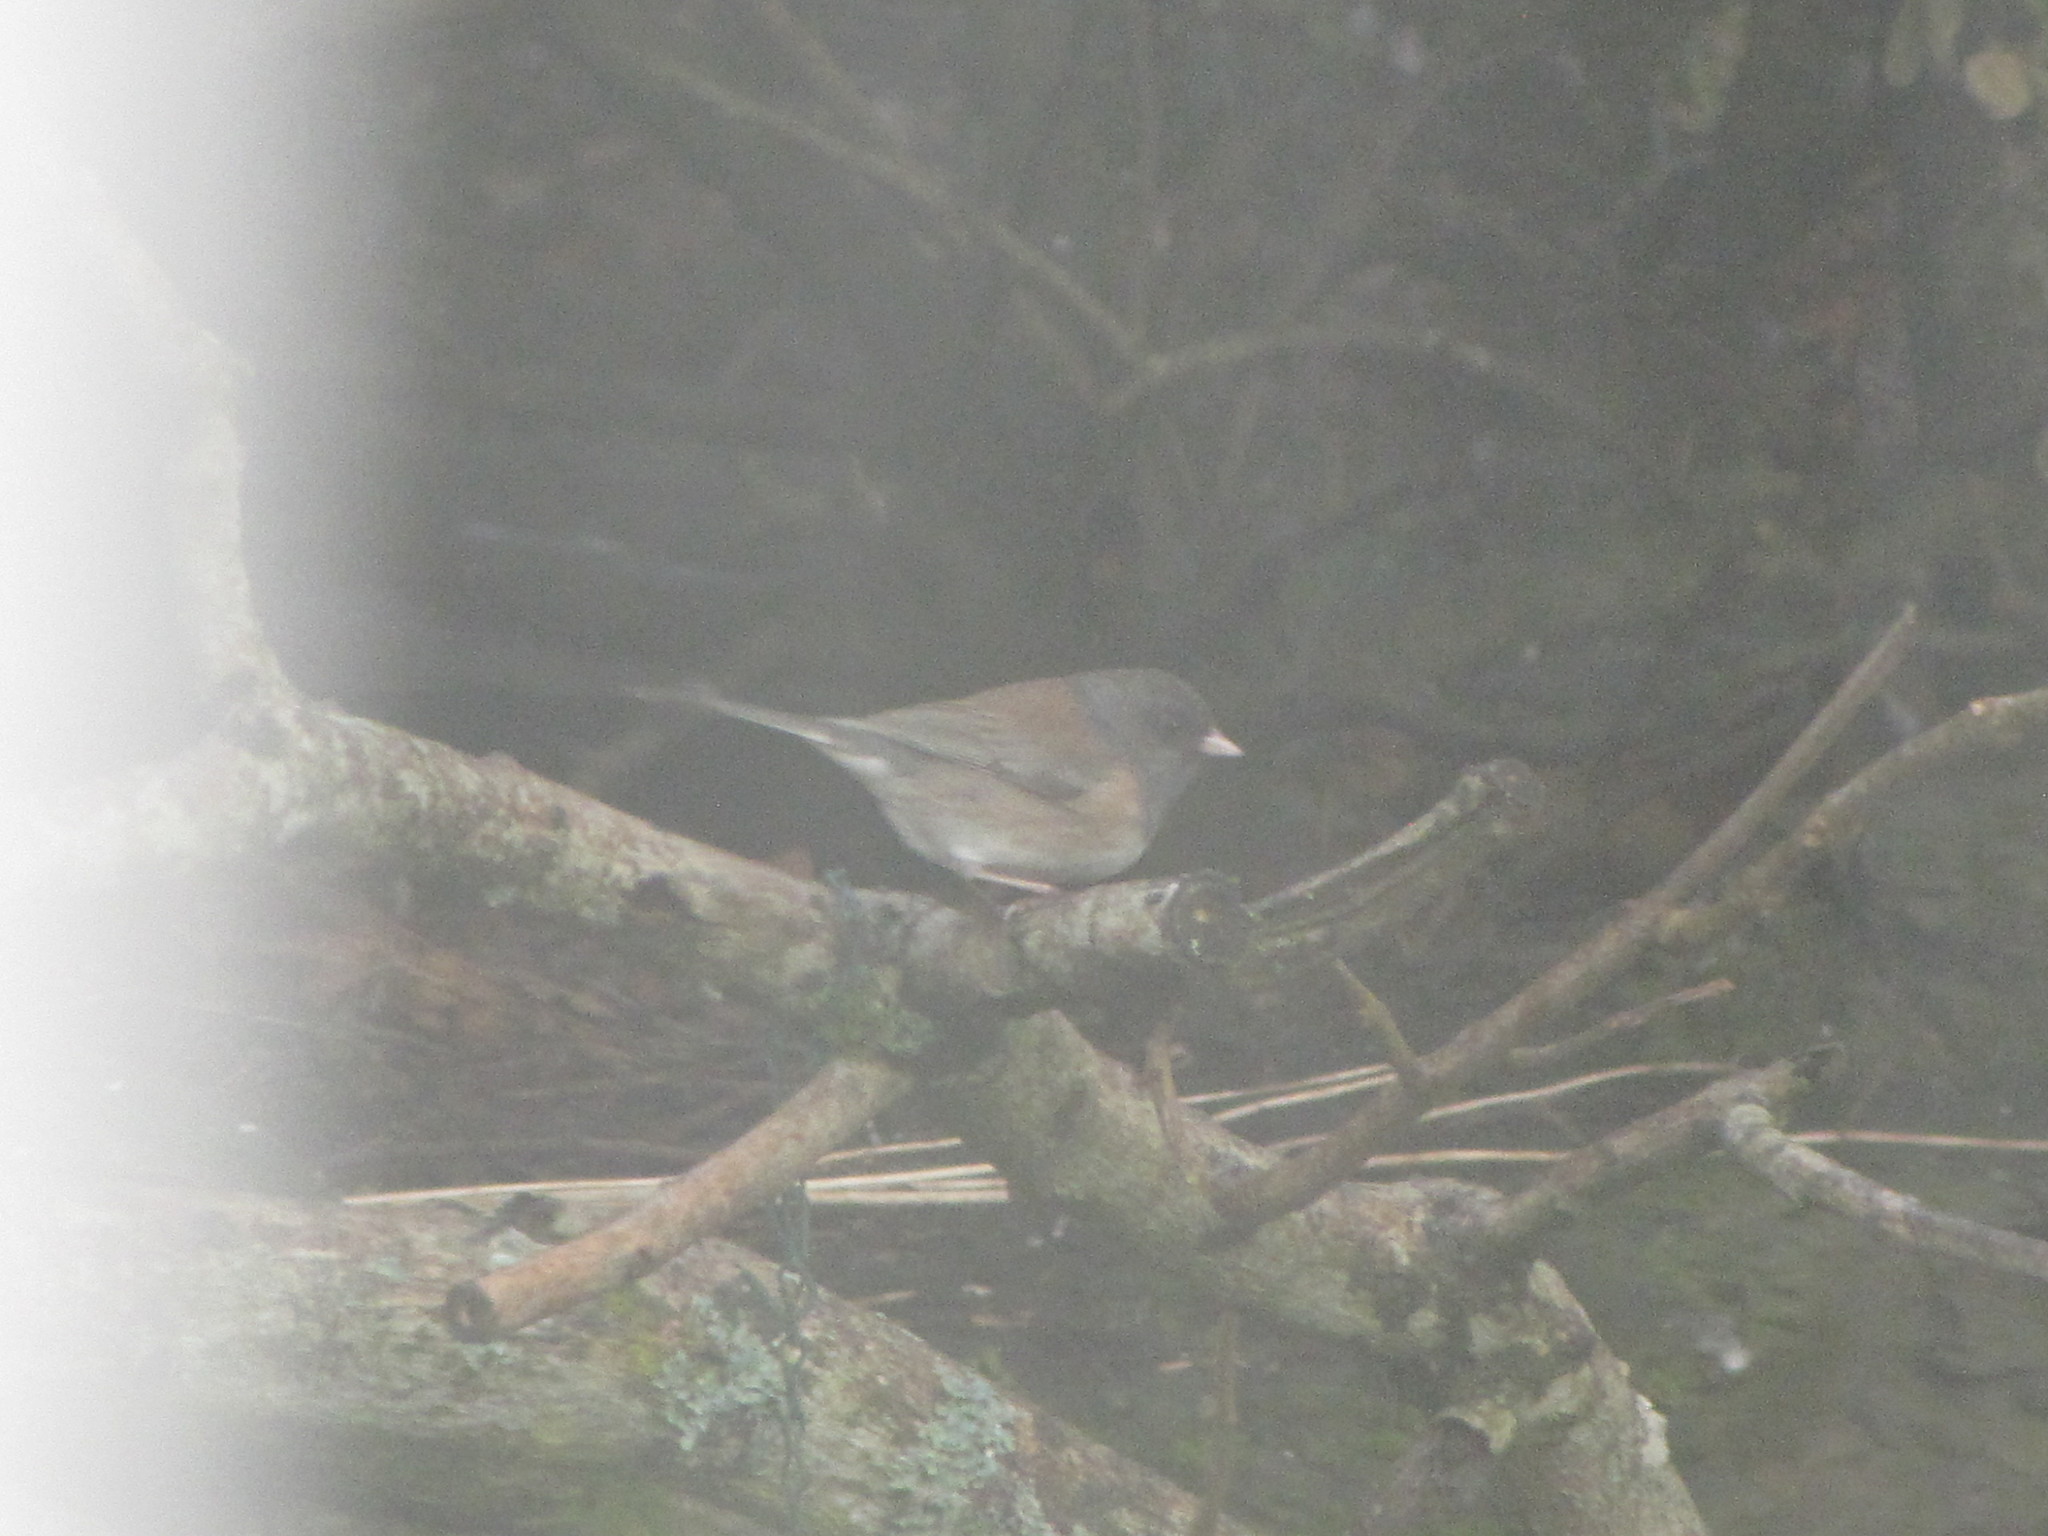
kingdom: Animalia
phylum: Chordata
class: Aves
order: Passeriformes
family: Passerellidae
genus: Junco
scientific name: Junco hyemalis
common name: Dark-eyed junco
